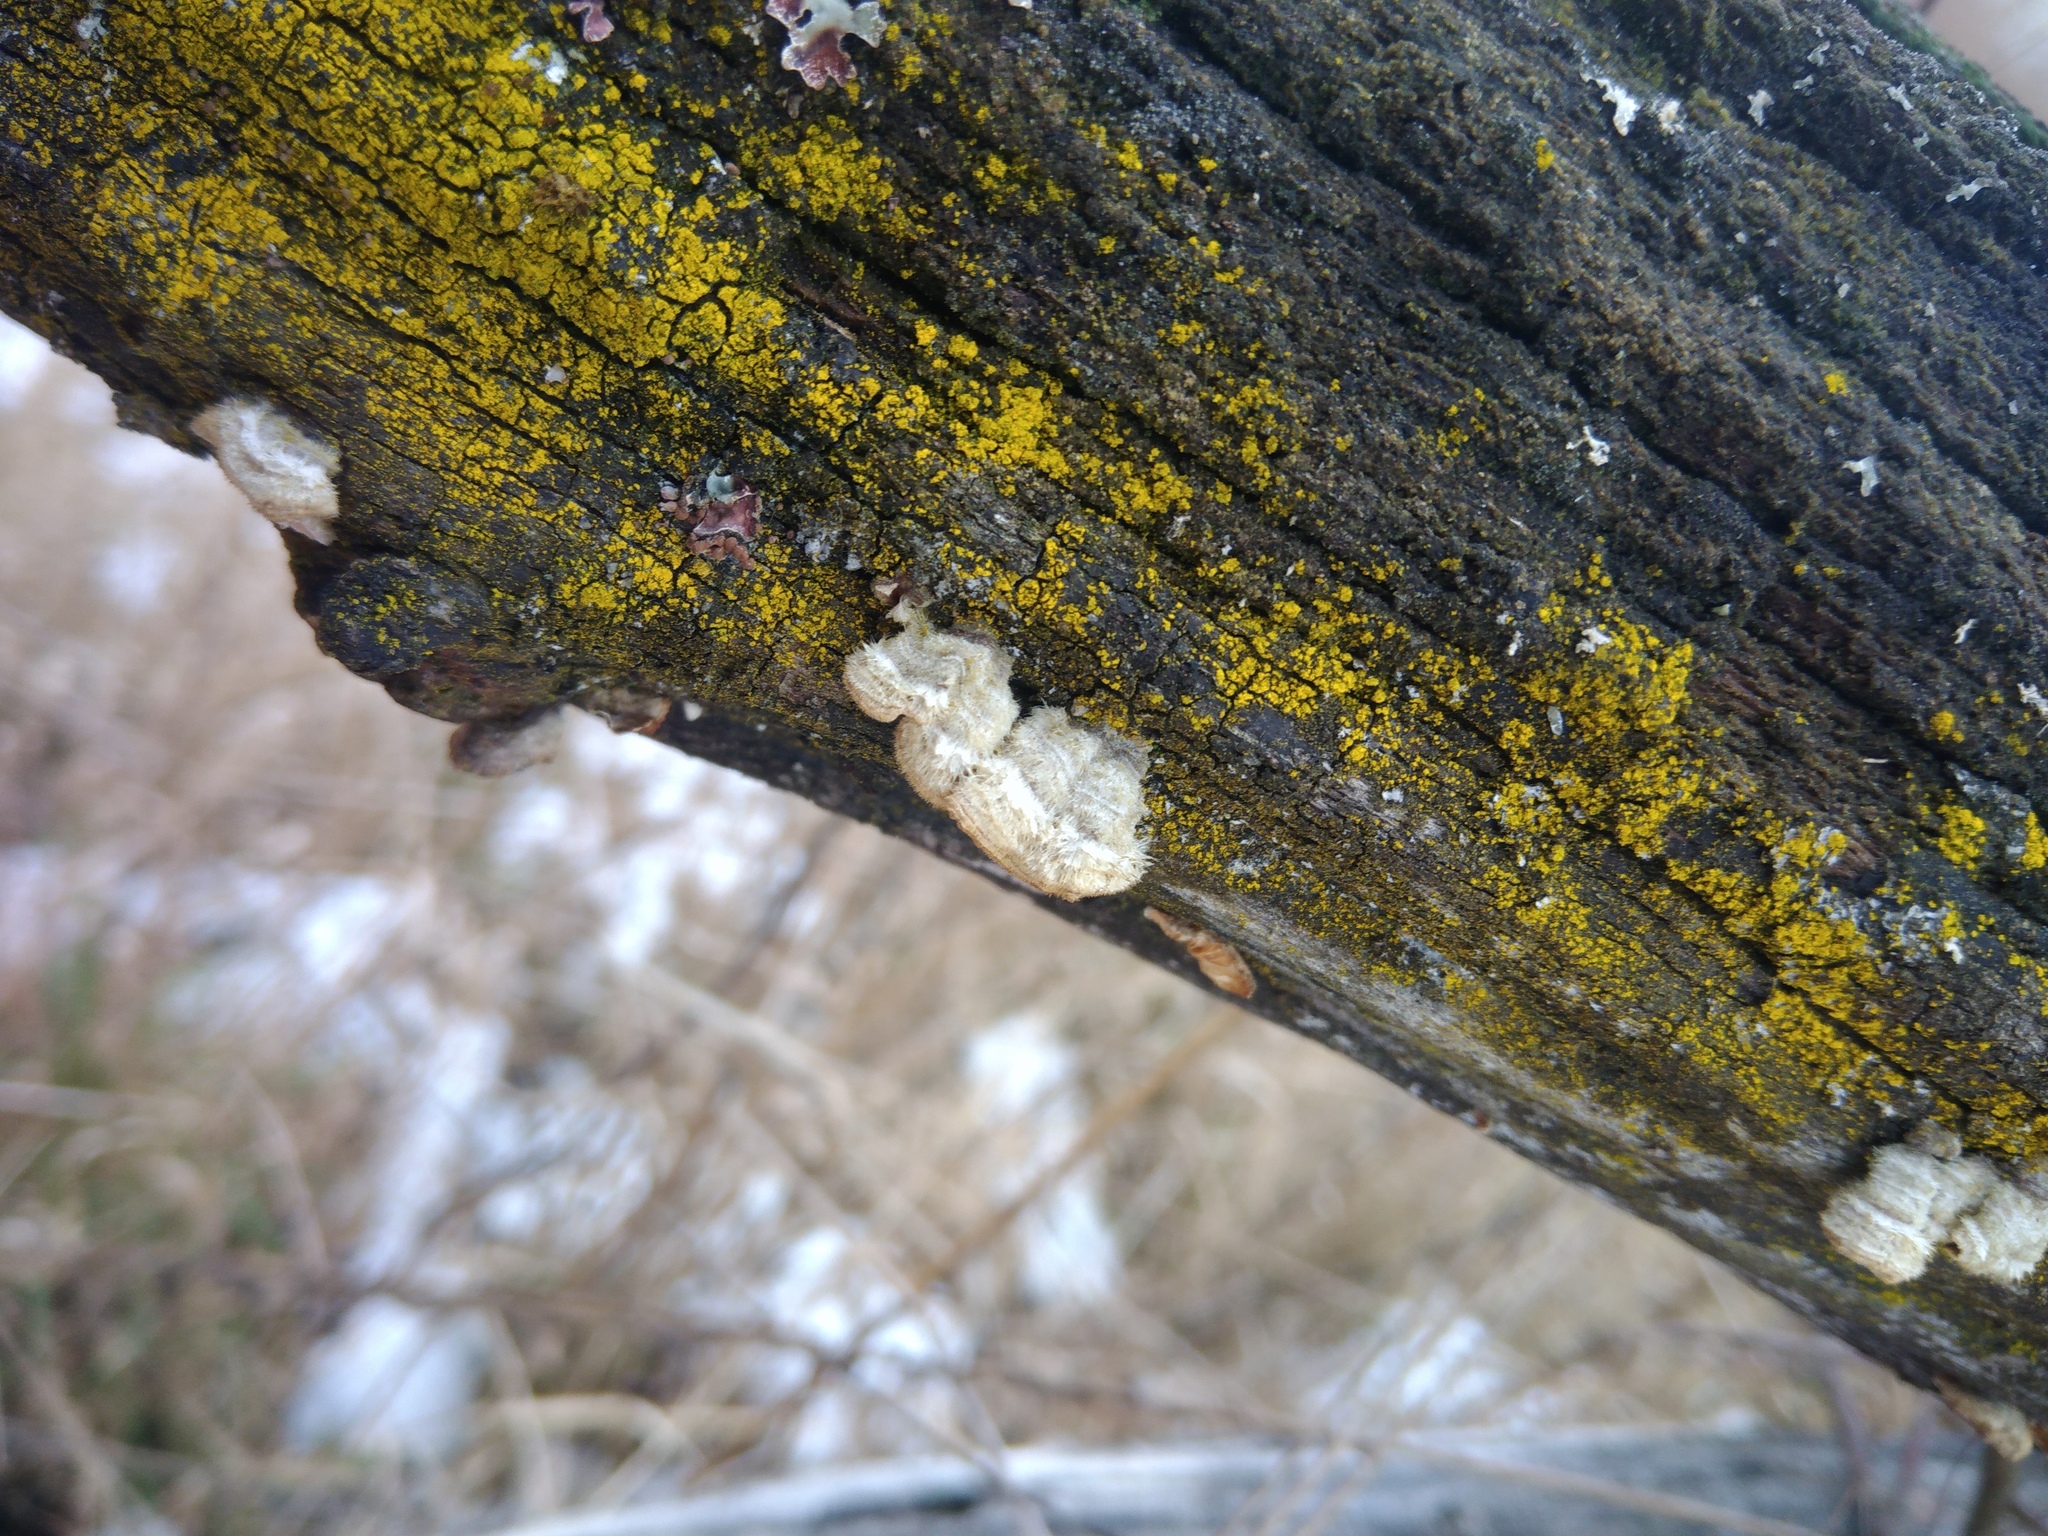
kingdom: Fungi
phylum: Basidiomycota
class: Agaricomycetes
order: Agaricales
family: Schizophyllaceae
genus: Schizophyllum
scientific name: Schizophyllum commune
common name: Common porecrust
